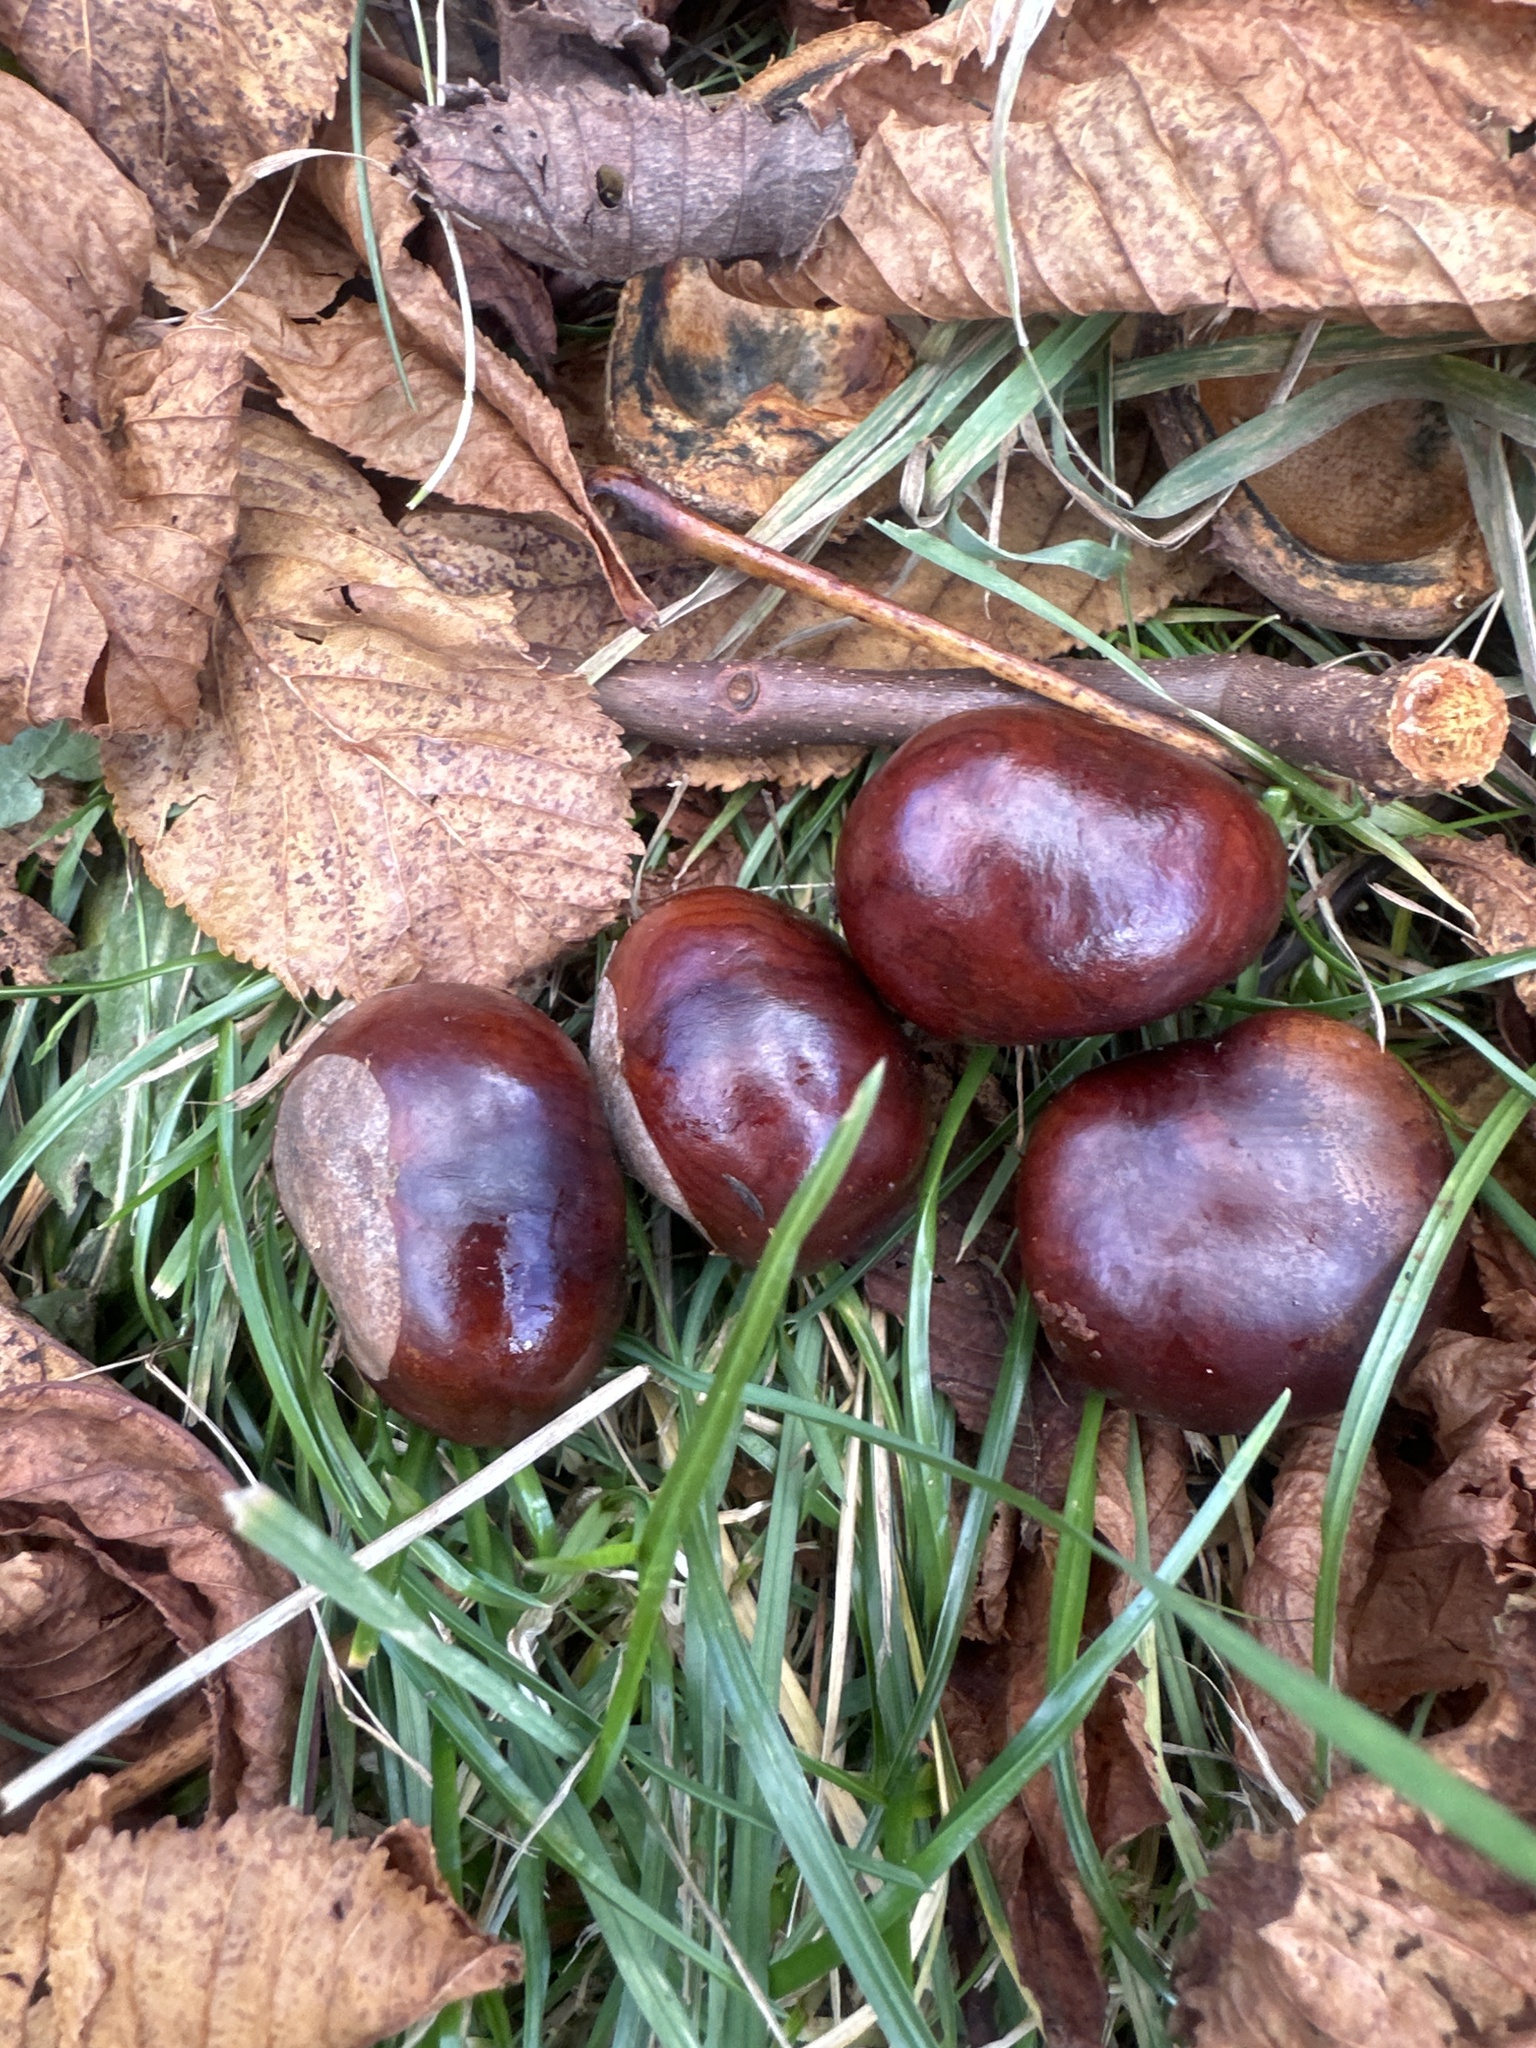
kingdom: Plantae
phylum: Tracheophyta
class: Magnoliopsida
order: Sapindales
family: Sapindaceae
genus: Aesculus
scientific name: Aesculus hippocastanum
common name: Horse-chestnut
